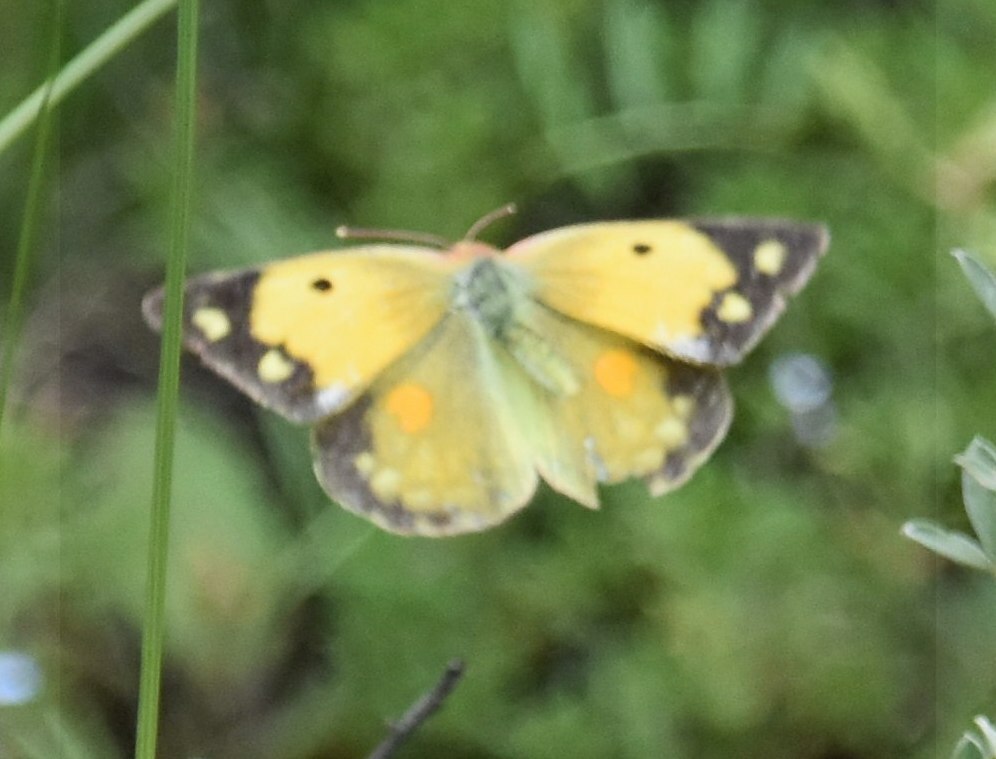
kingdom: Animalia
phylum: Arthropoda
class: Insecta
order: Lepidoptera
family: Pieridae
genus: Colias
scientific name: Colias croceus
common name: Clouded yellow
